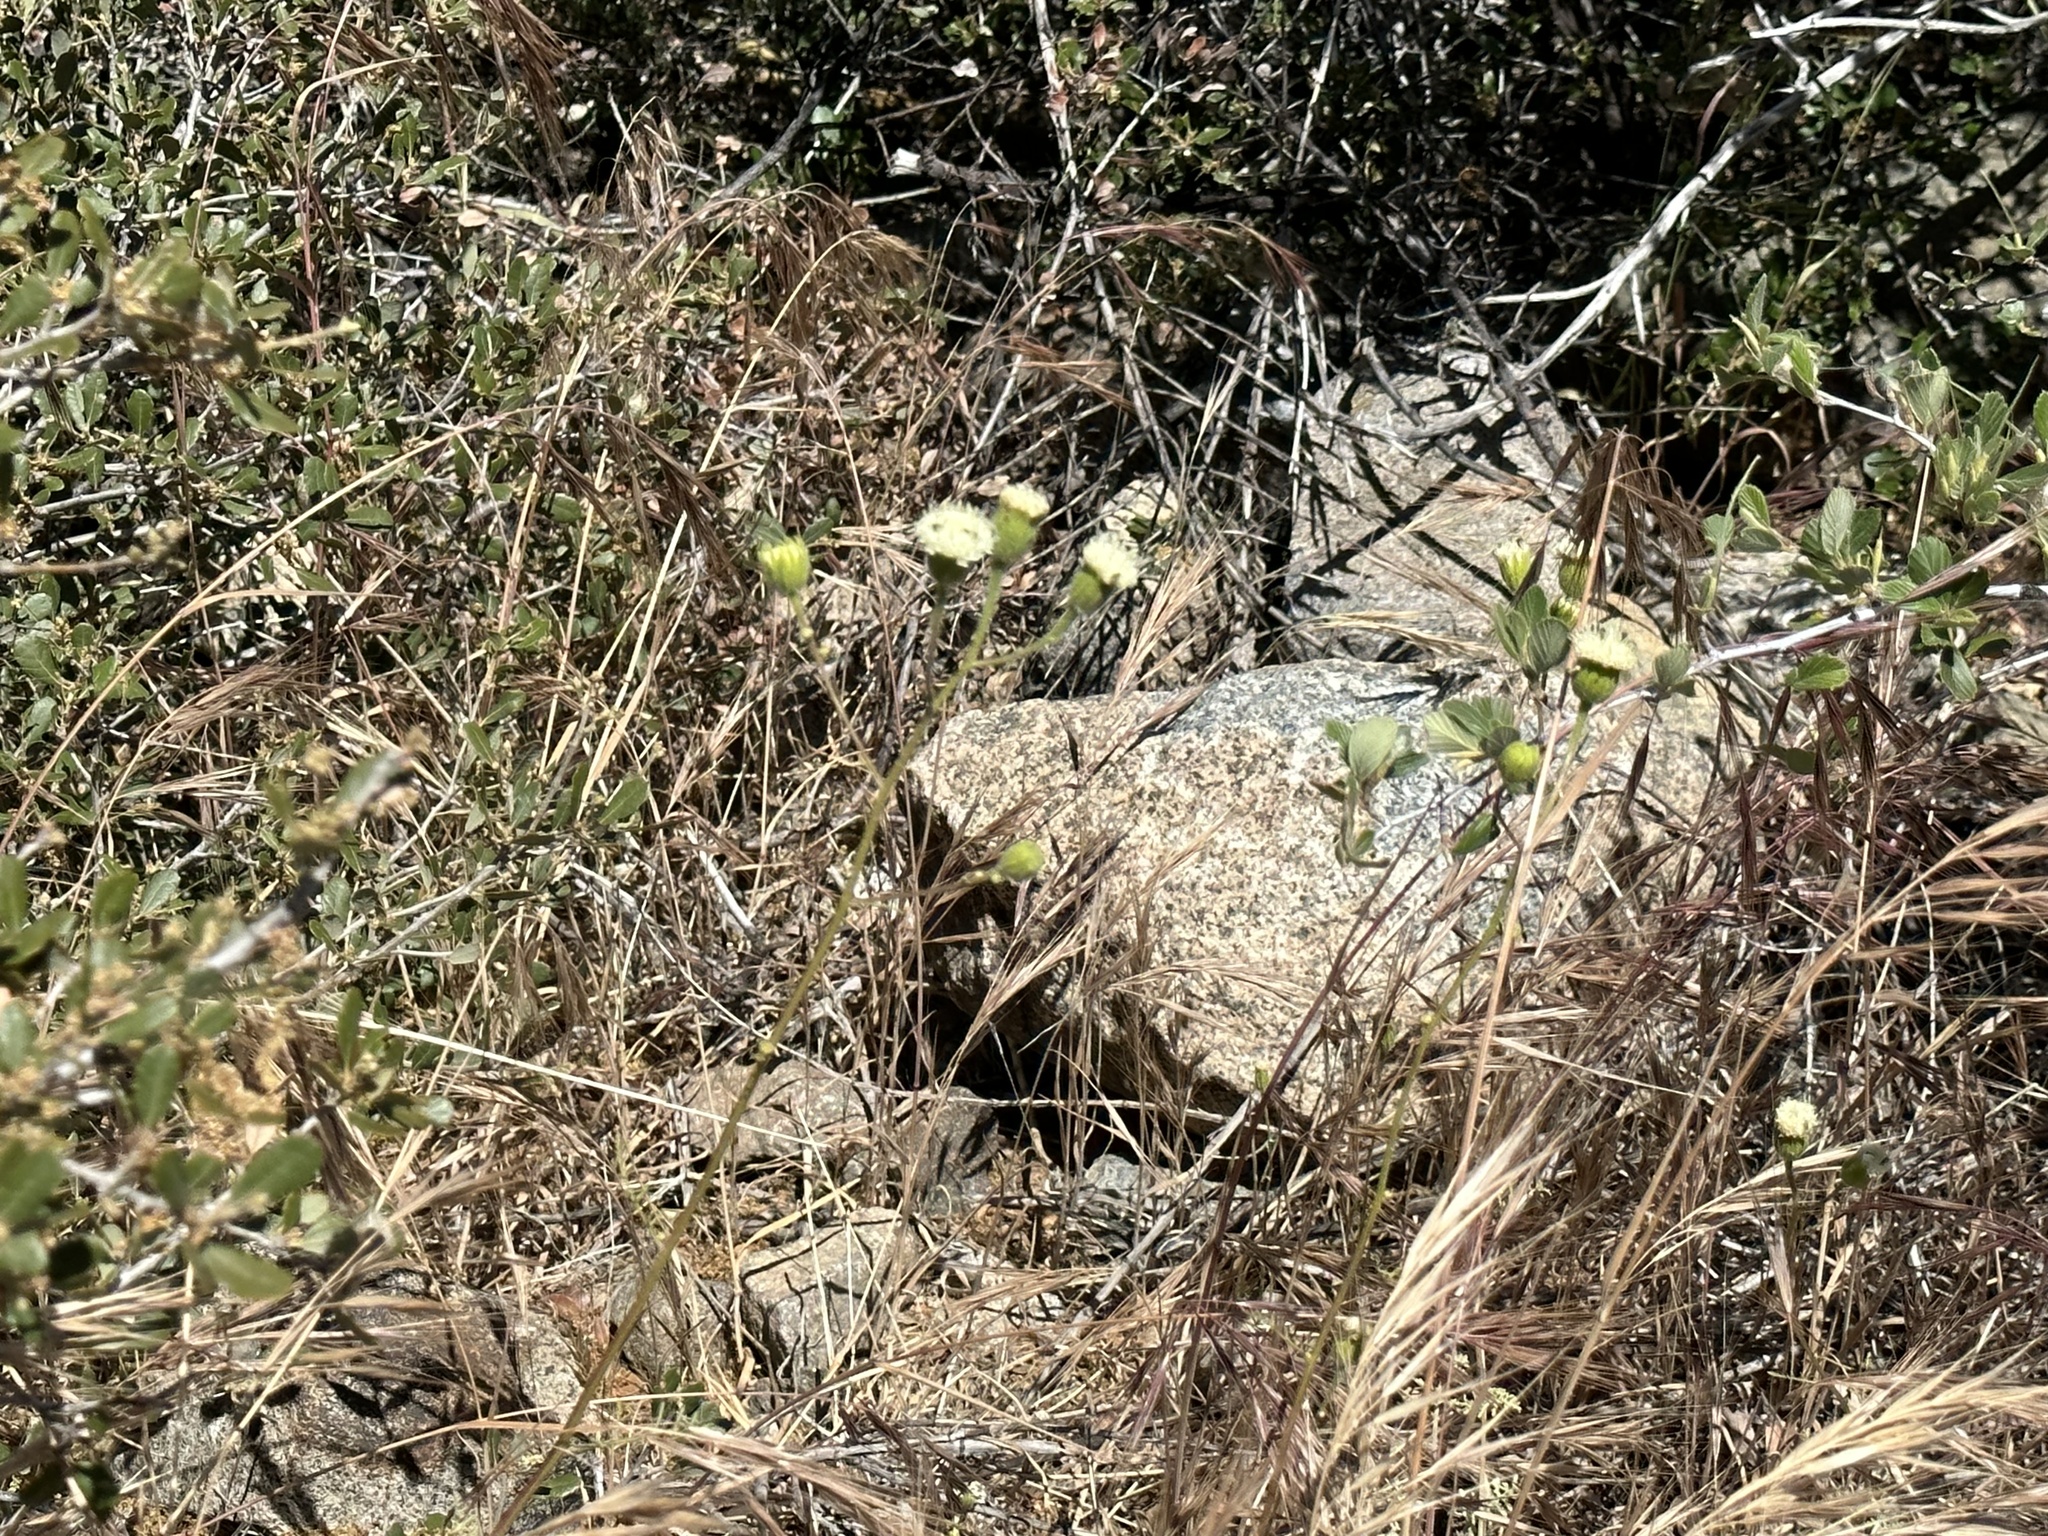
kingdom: Plantae
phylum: Tracheophyta
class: Magnoliopsida
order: Asterales
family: Asteraceae
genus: Chaenactis
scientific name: Chaenactis artemisiifolia
